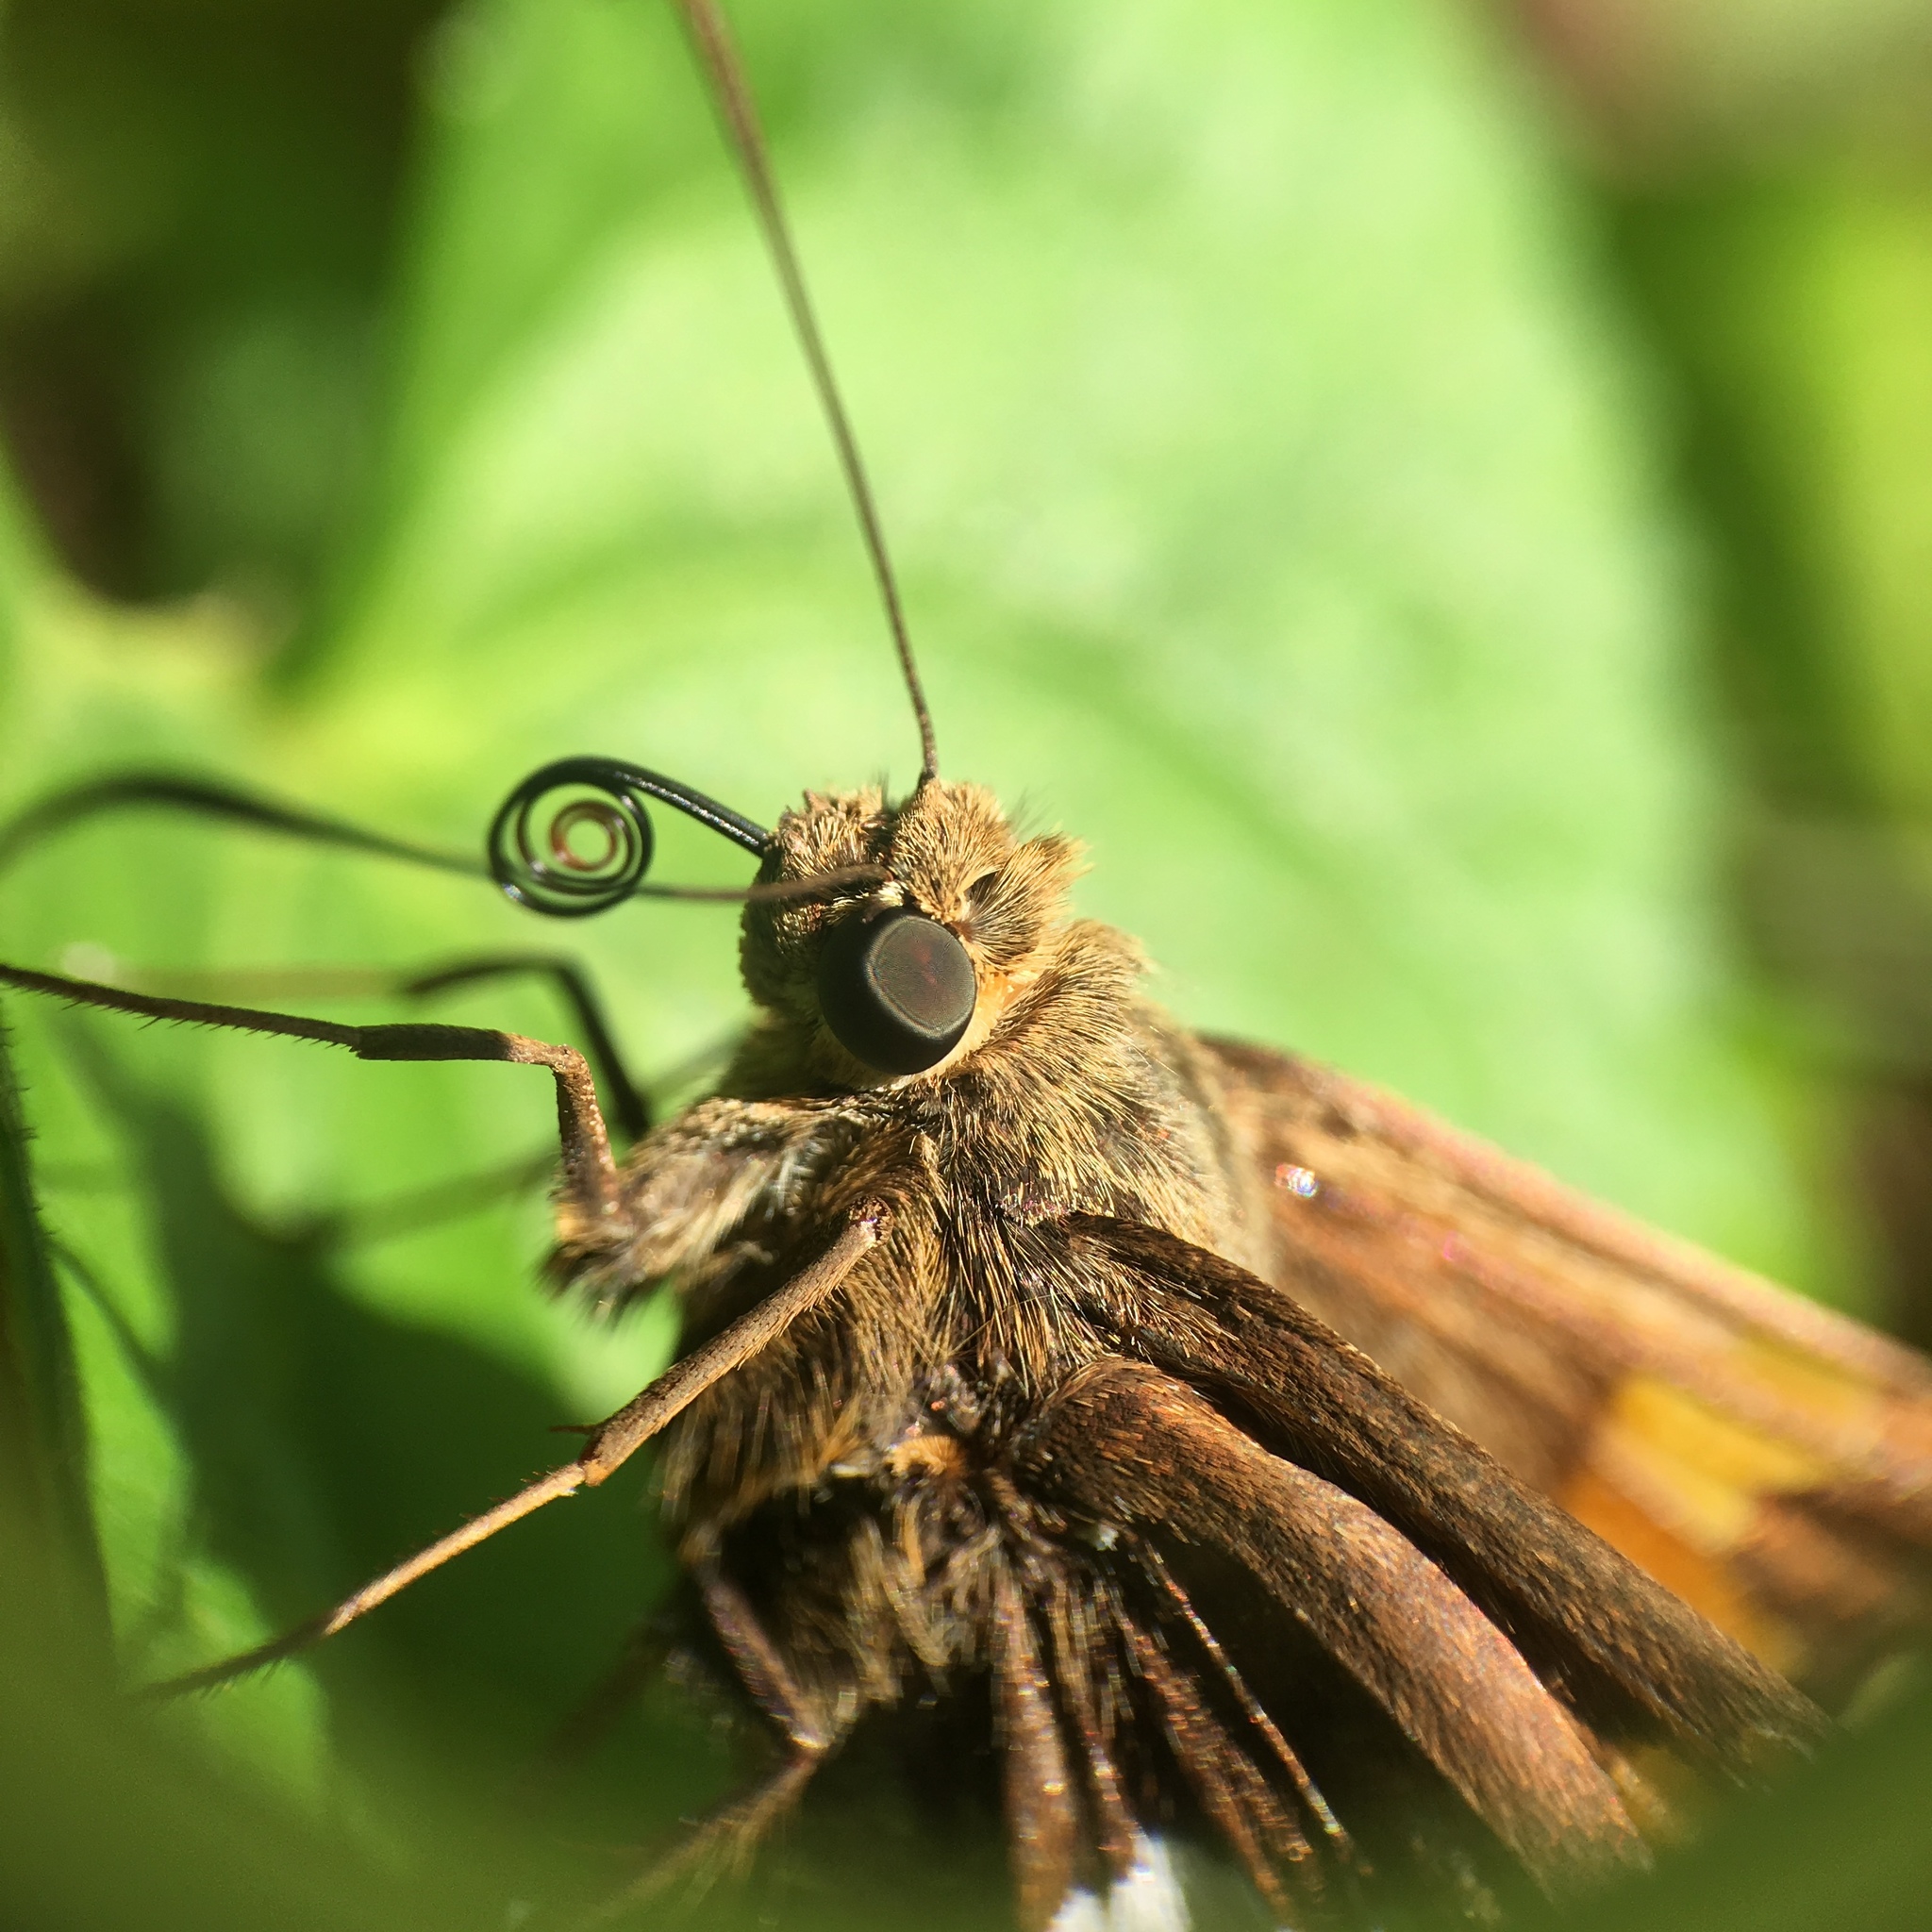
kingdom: Animalia
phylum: Arthropoda
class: Insecta
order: Lepidoptera
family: Hesperiidae
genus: Epargyreus
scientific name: Epargyreus clarus
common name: Silver-spotted skipper
